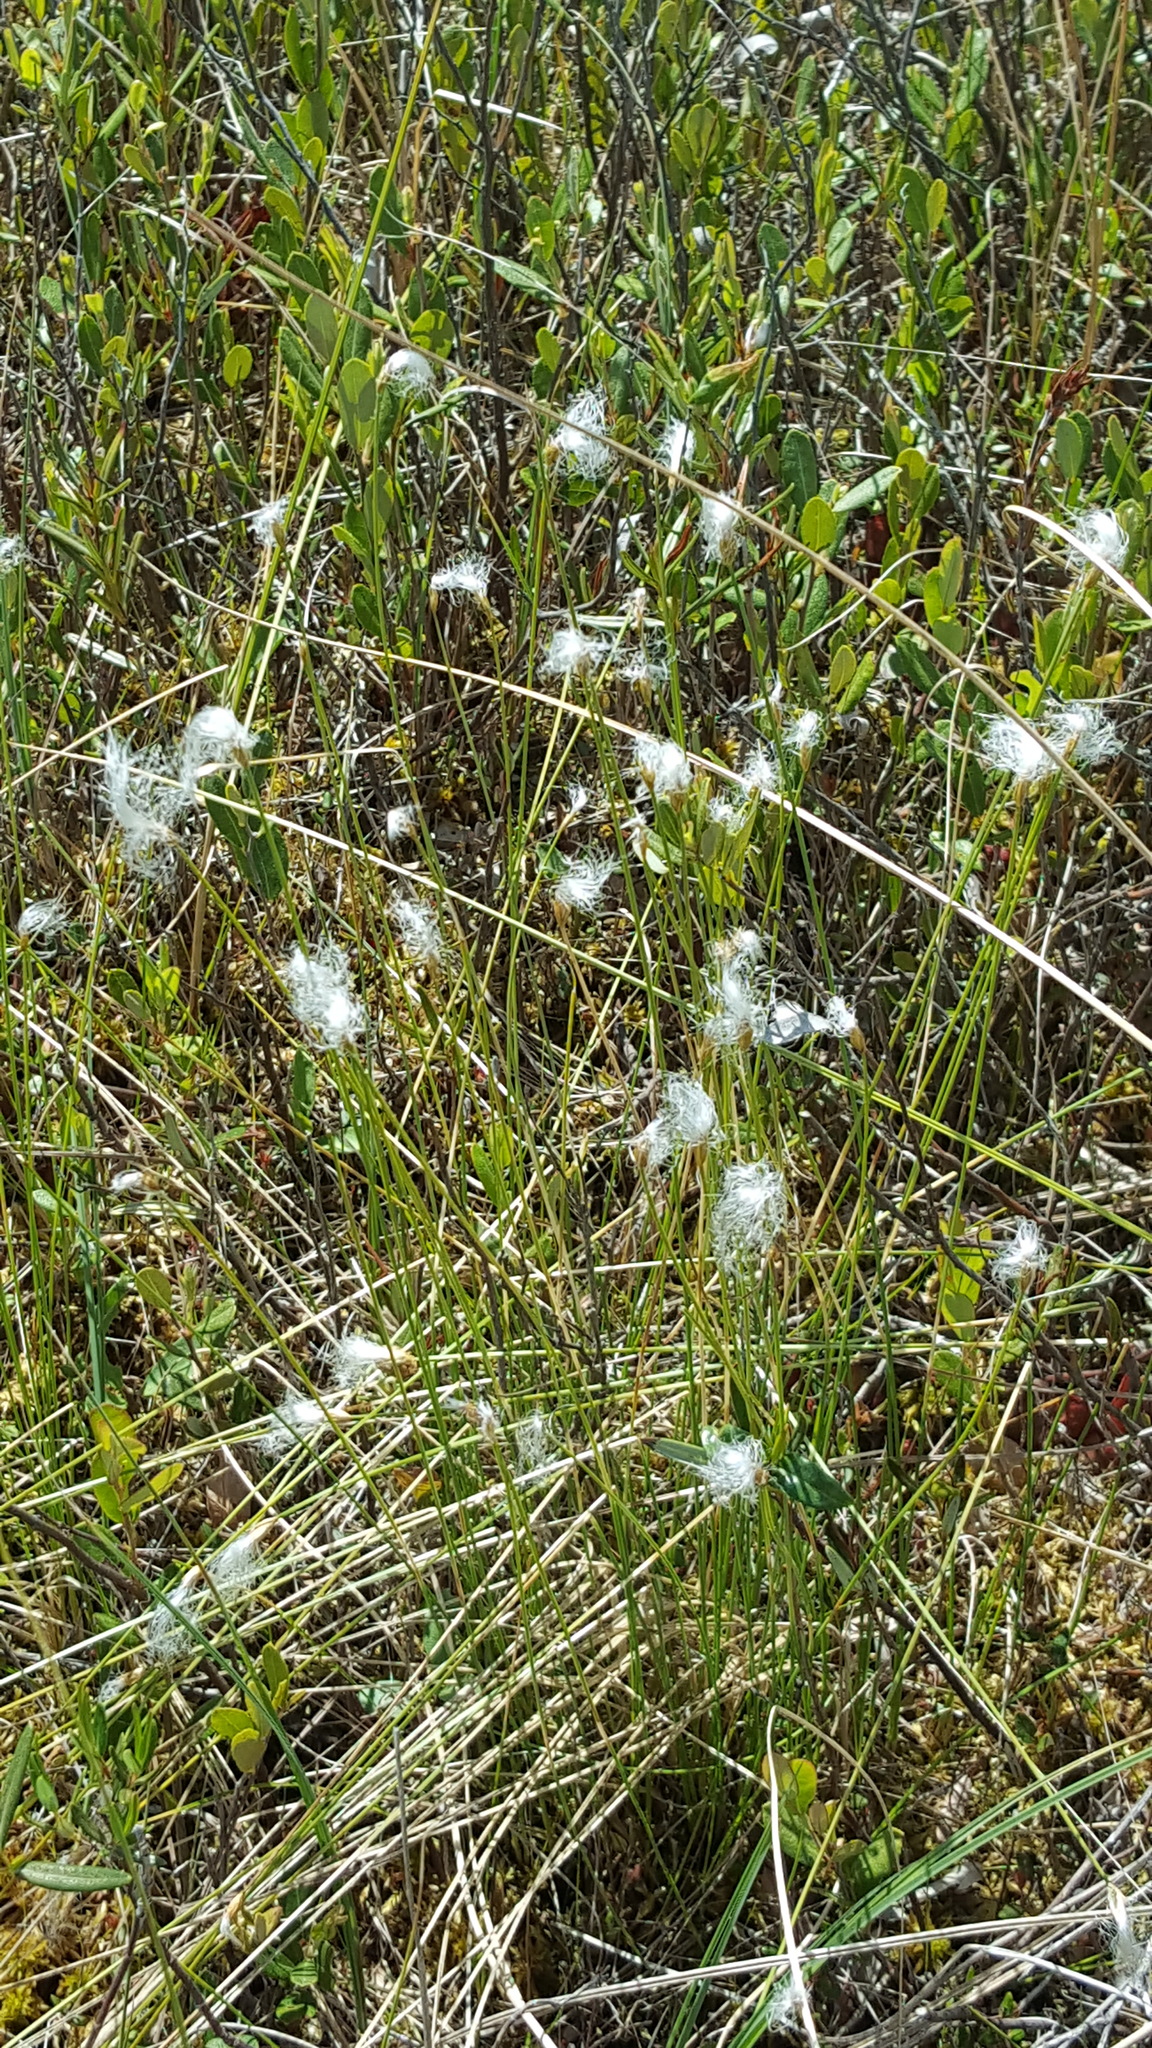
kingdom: Plantae
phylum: Tracheophyta
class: Liliopsida
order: Poales
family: Cyperaceae
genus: Trichophorum
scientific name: Trichophorum alpinum
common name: Alpine bulrush
